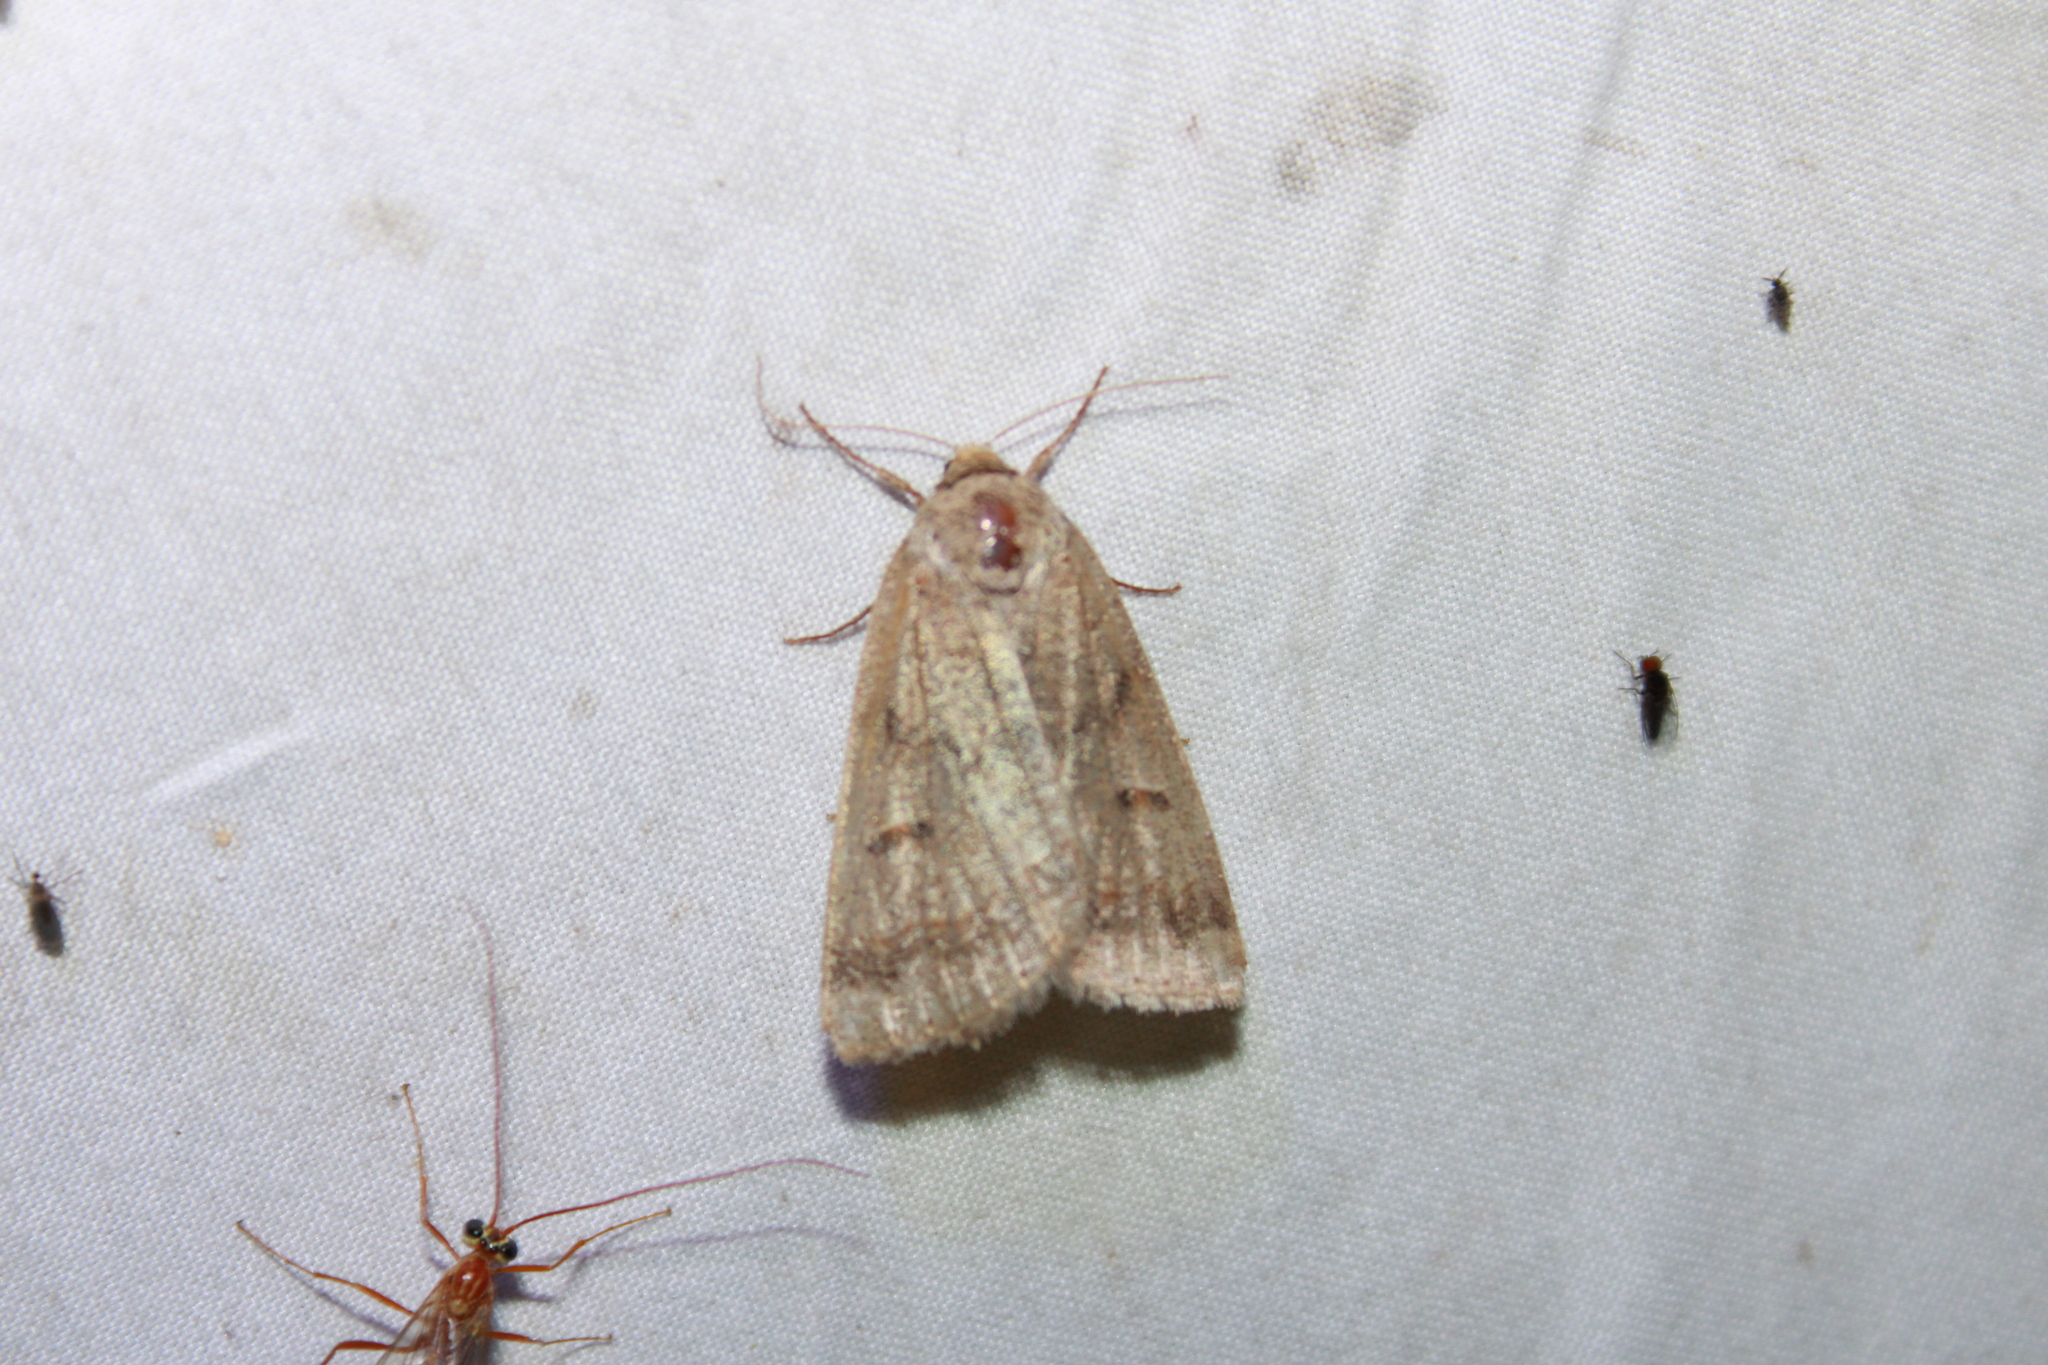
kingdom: Animalia
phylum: Arthropoda
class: Insecta
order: Lepidoptera
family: Erebidae
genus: Phoberia
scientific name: Phoberia atomaris
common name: Common oak moth
